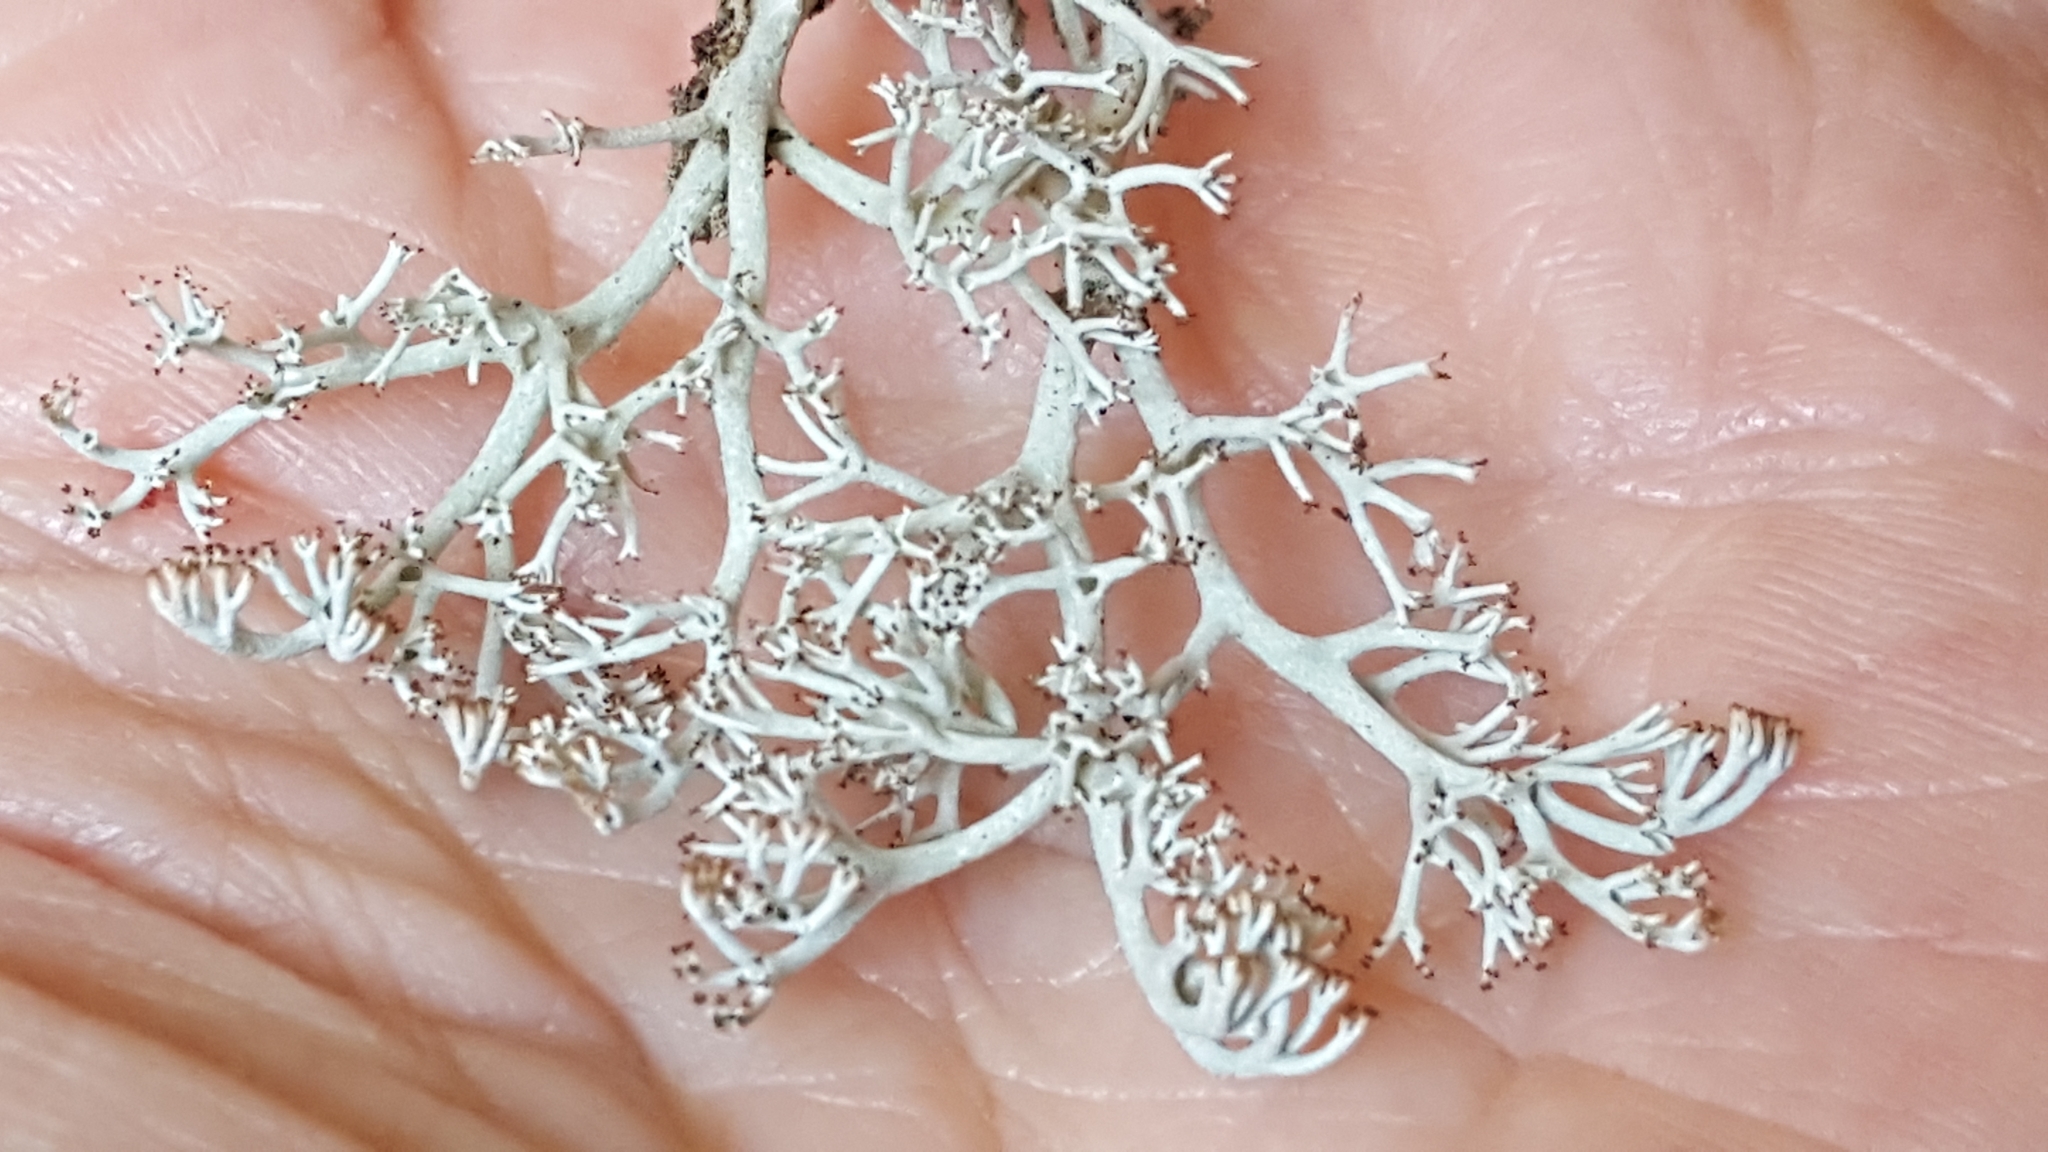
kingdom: Fungi
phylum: Ascomycota
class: Lecanoromycetes
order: Lecanorales
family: Cladoniaceae
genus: Cladonia
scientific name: Cladonia rangiferina
